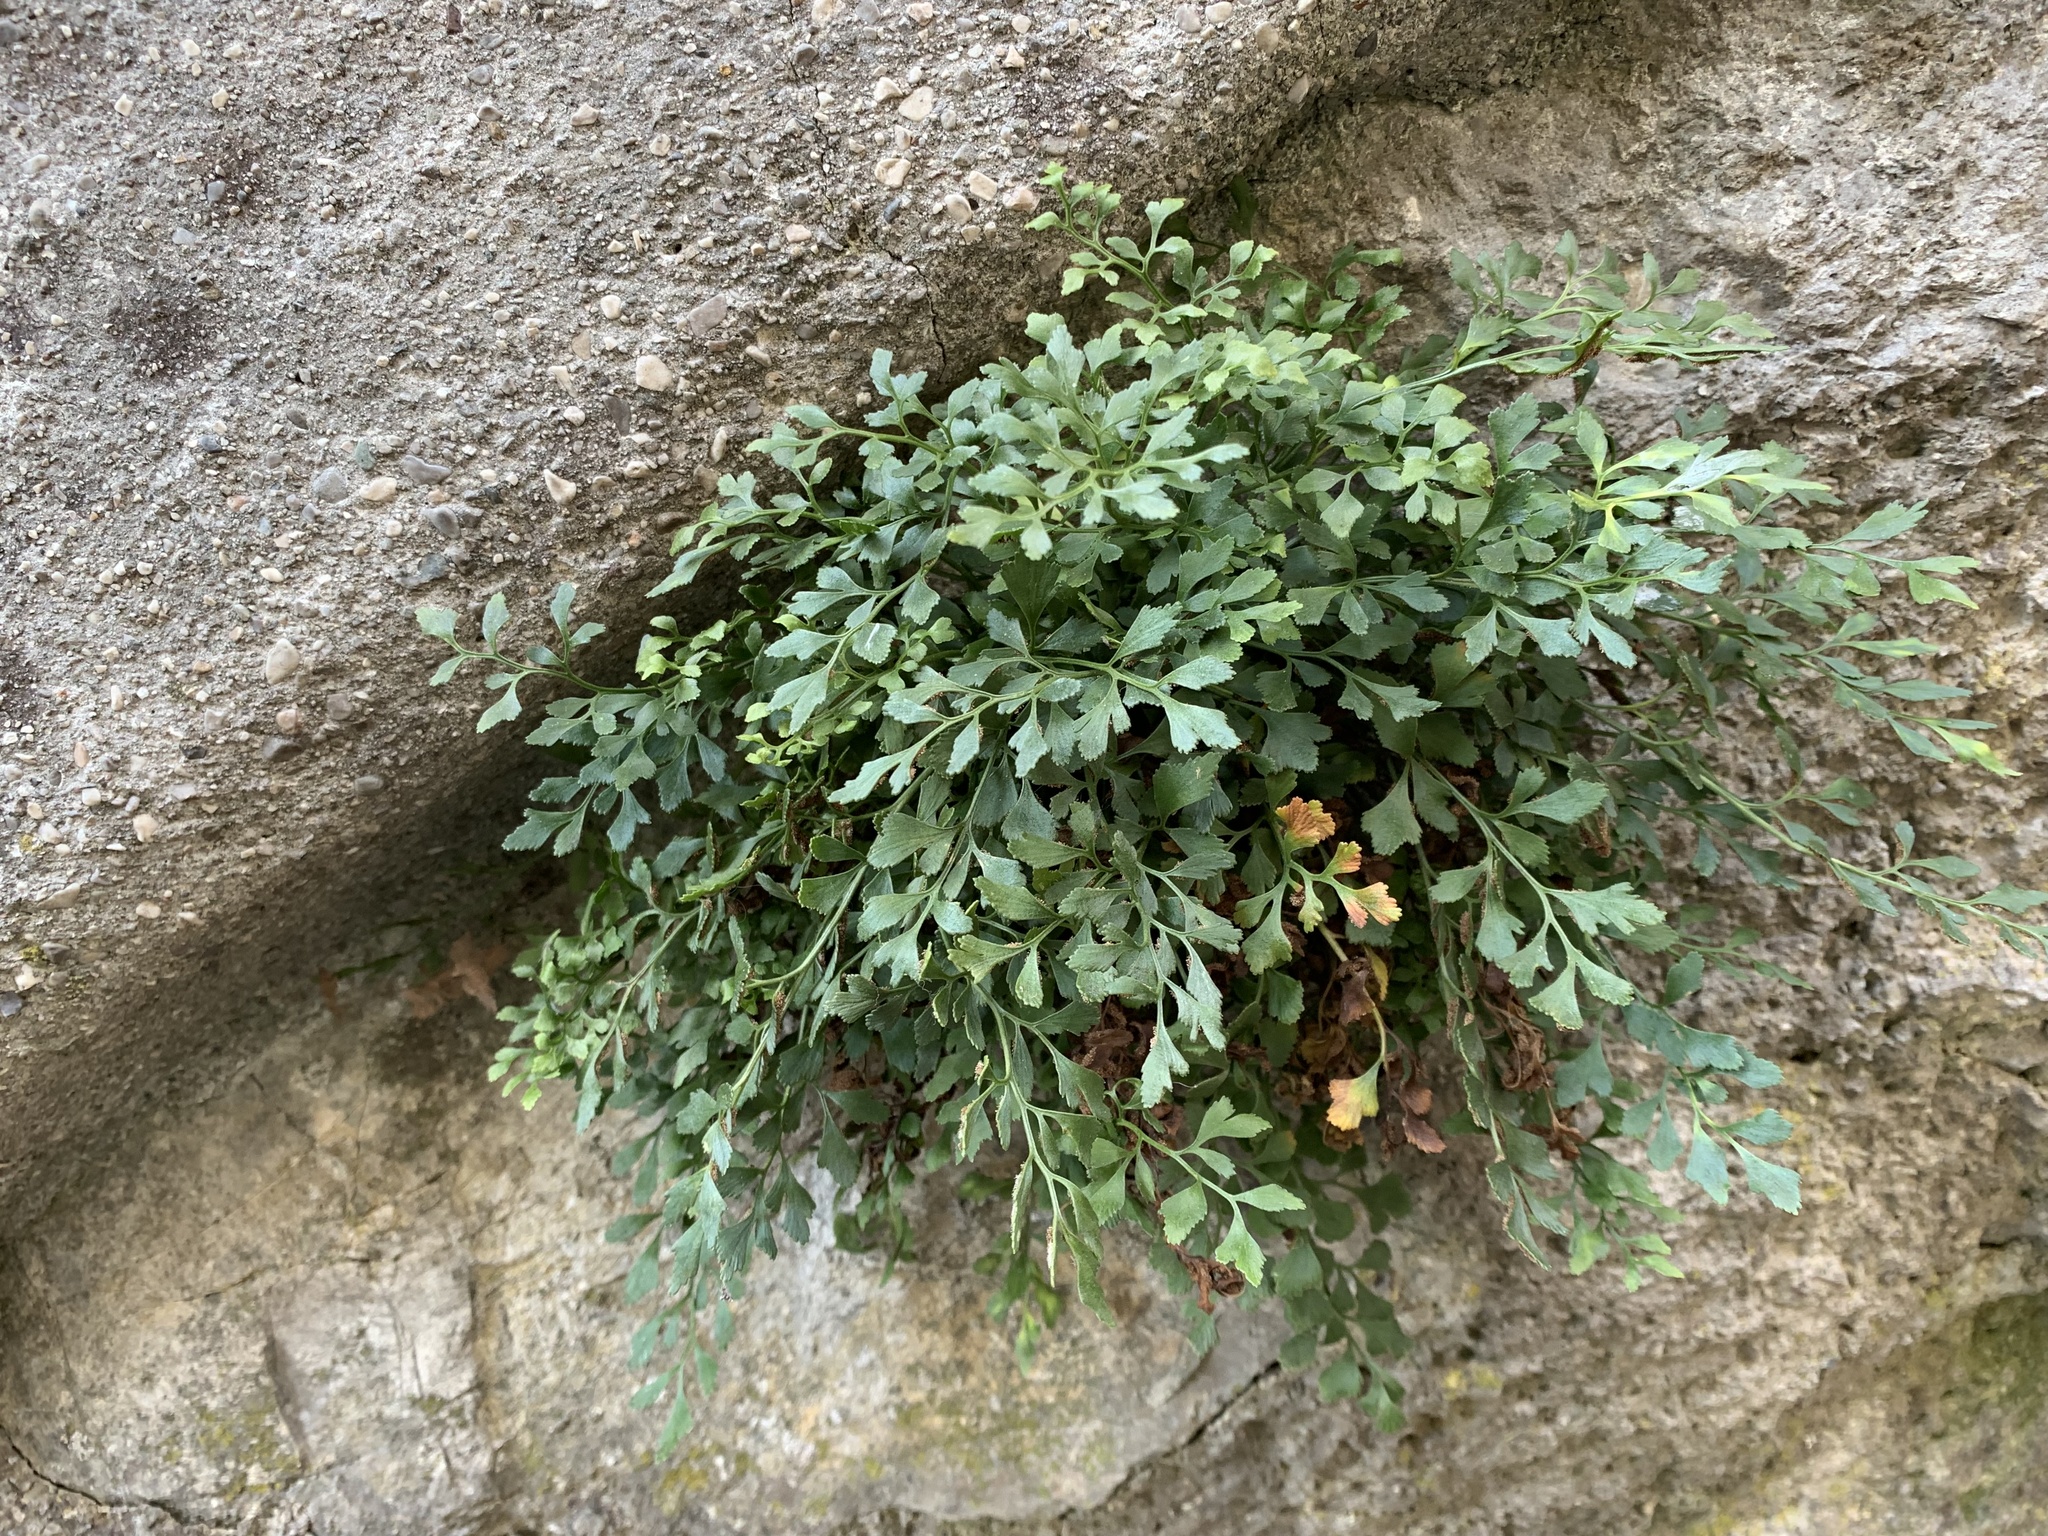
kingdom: Plantae
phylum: Tracheophyta
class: Polypodiopsida
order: Polypodiales
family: Aspleniaceae
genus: Asplenium
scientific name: Asplenium ruta-muraria
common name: Wall-rue
